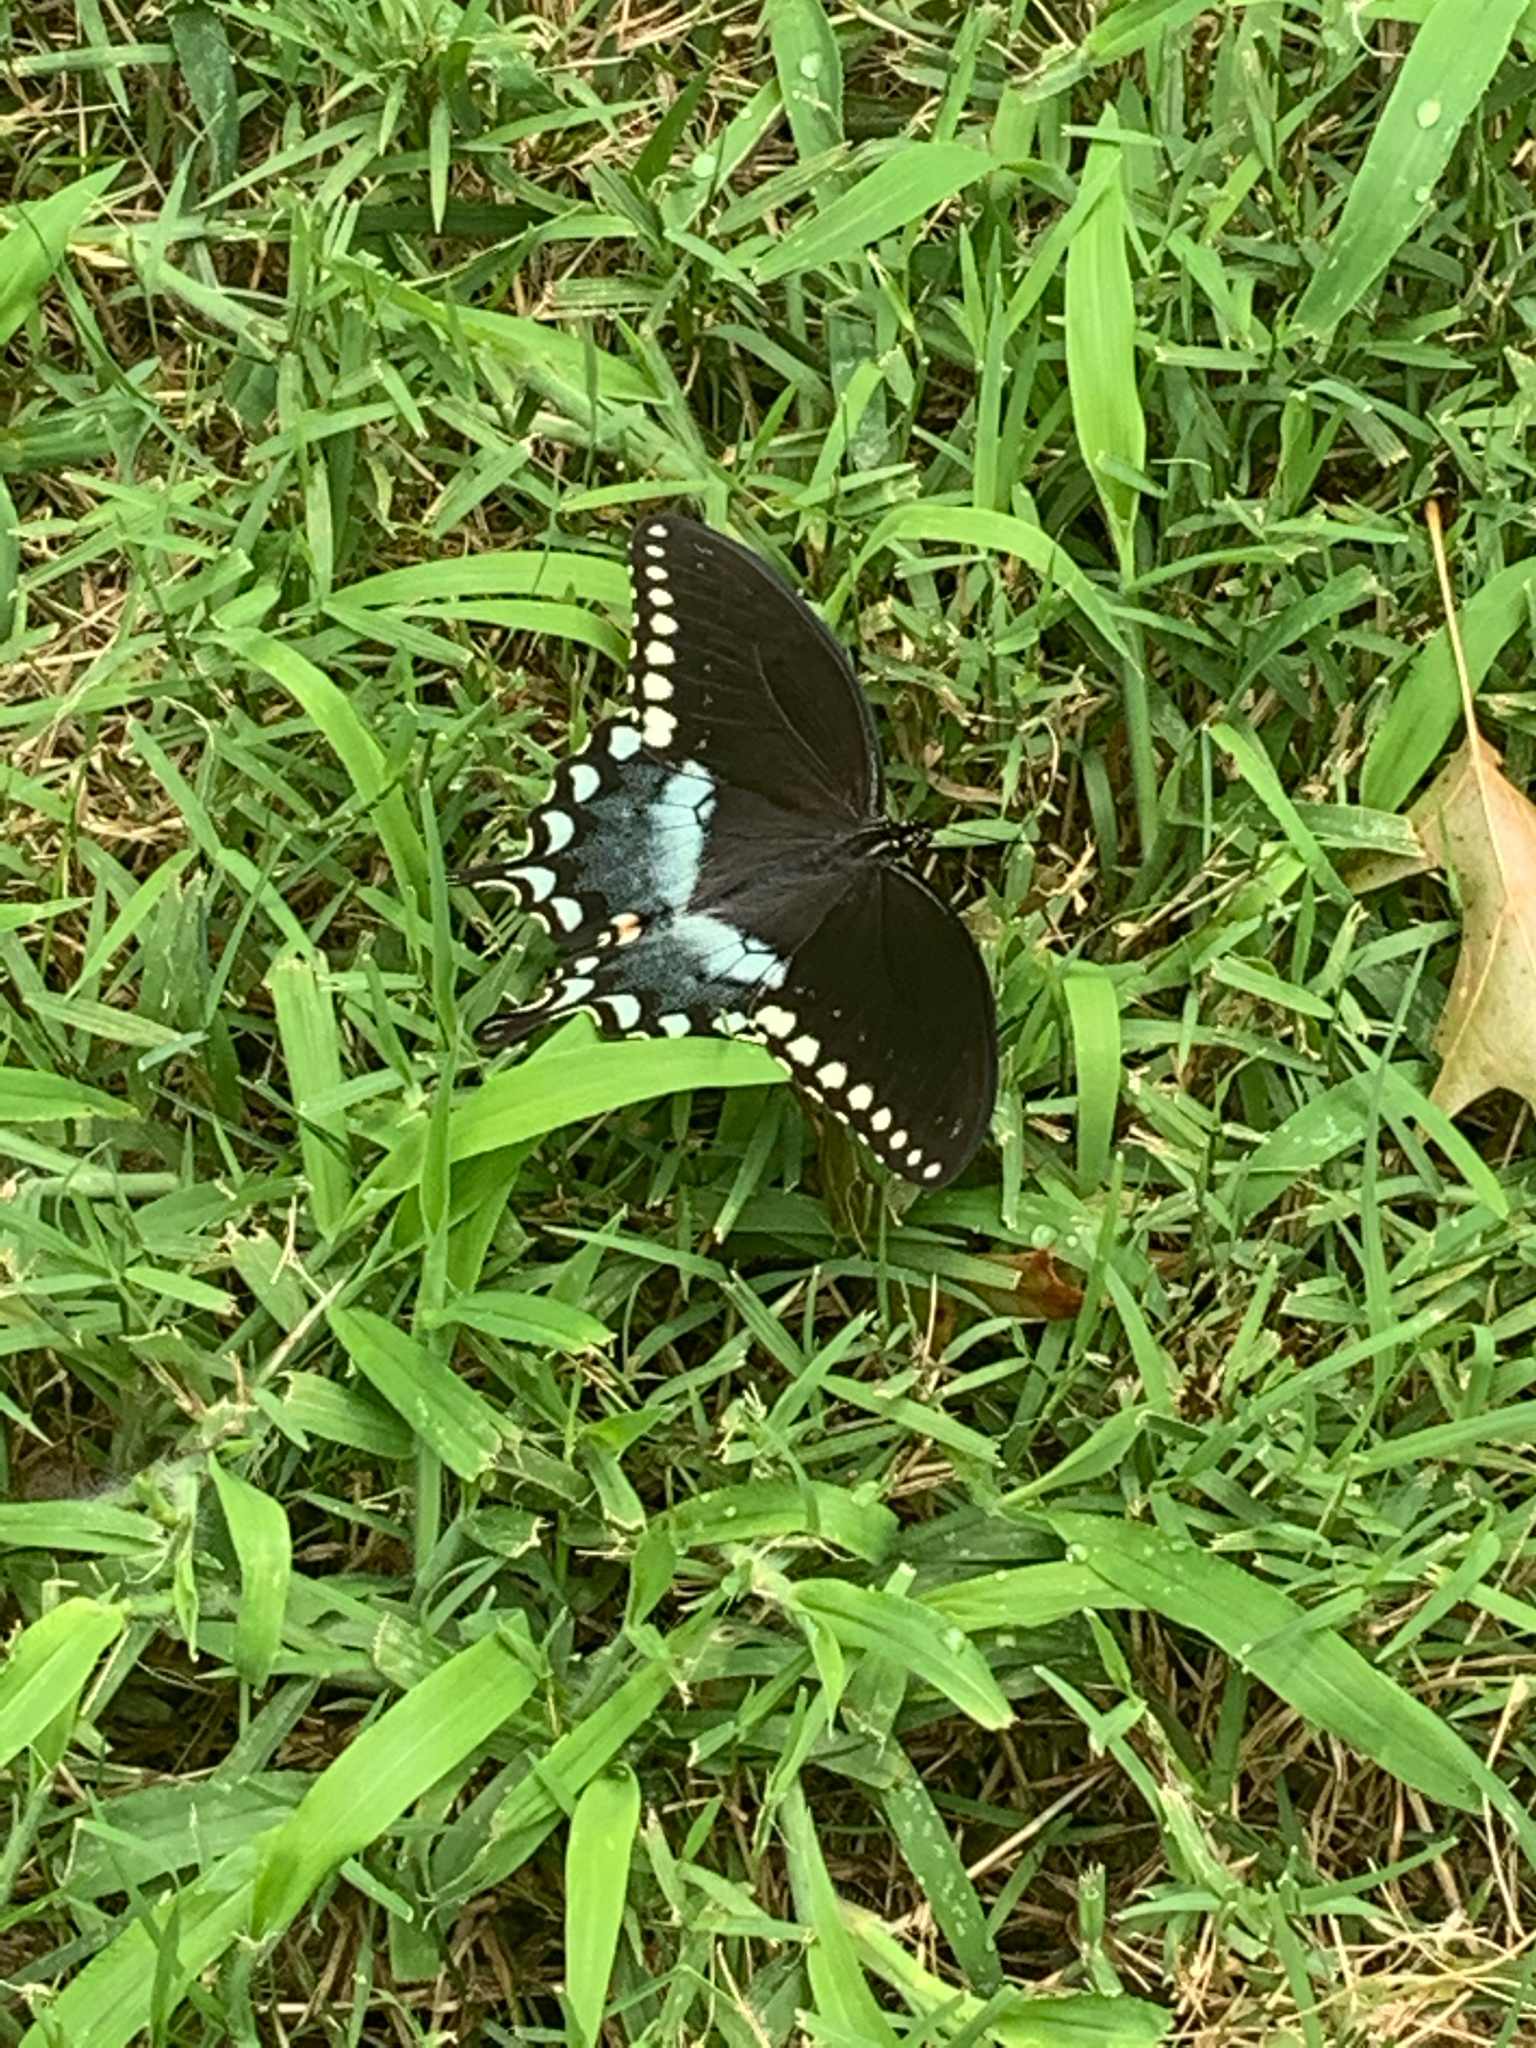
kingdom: Animalia
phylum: Arthropoda
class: Insecta
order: Lepidoptera
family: Papilionidae
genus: Papilio
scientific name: Papilio troilus
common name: Spicebush swallowtail
